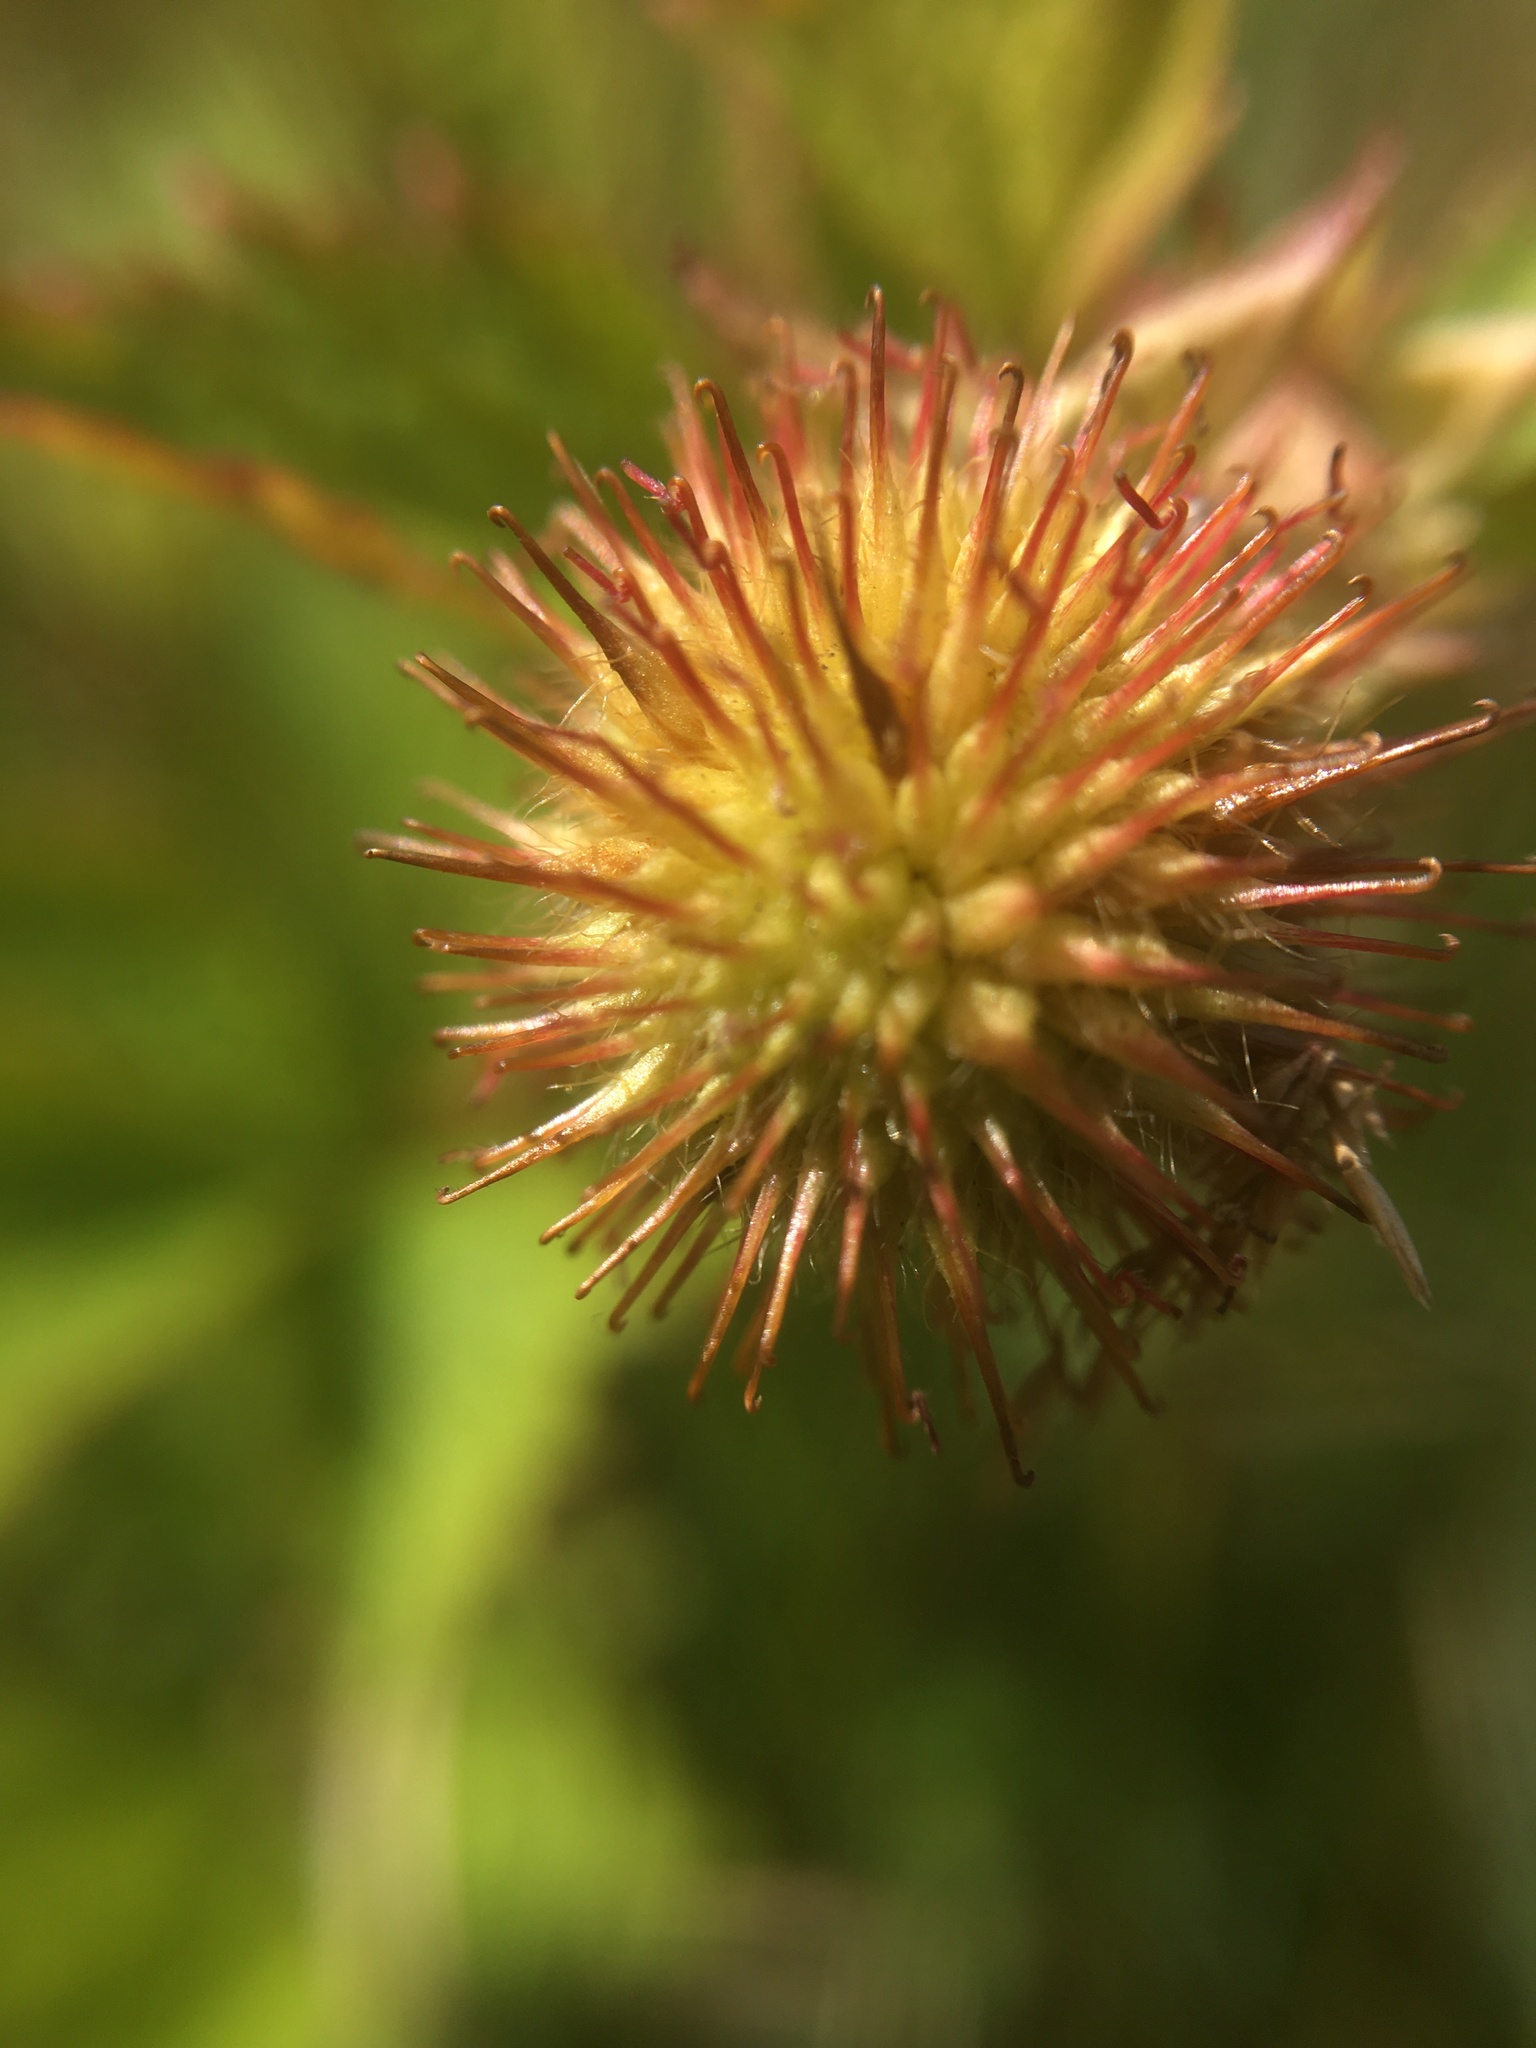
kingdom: Plantae
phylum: Tracheophyta
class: Magnoliopsida
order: Rosales
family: Rosaceae
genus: Geum
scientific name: Geum laciniatum
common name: Rough avens
